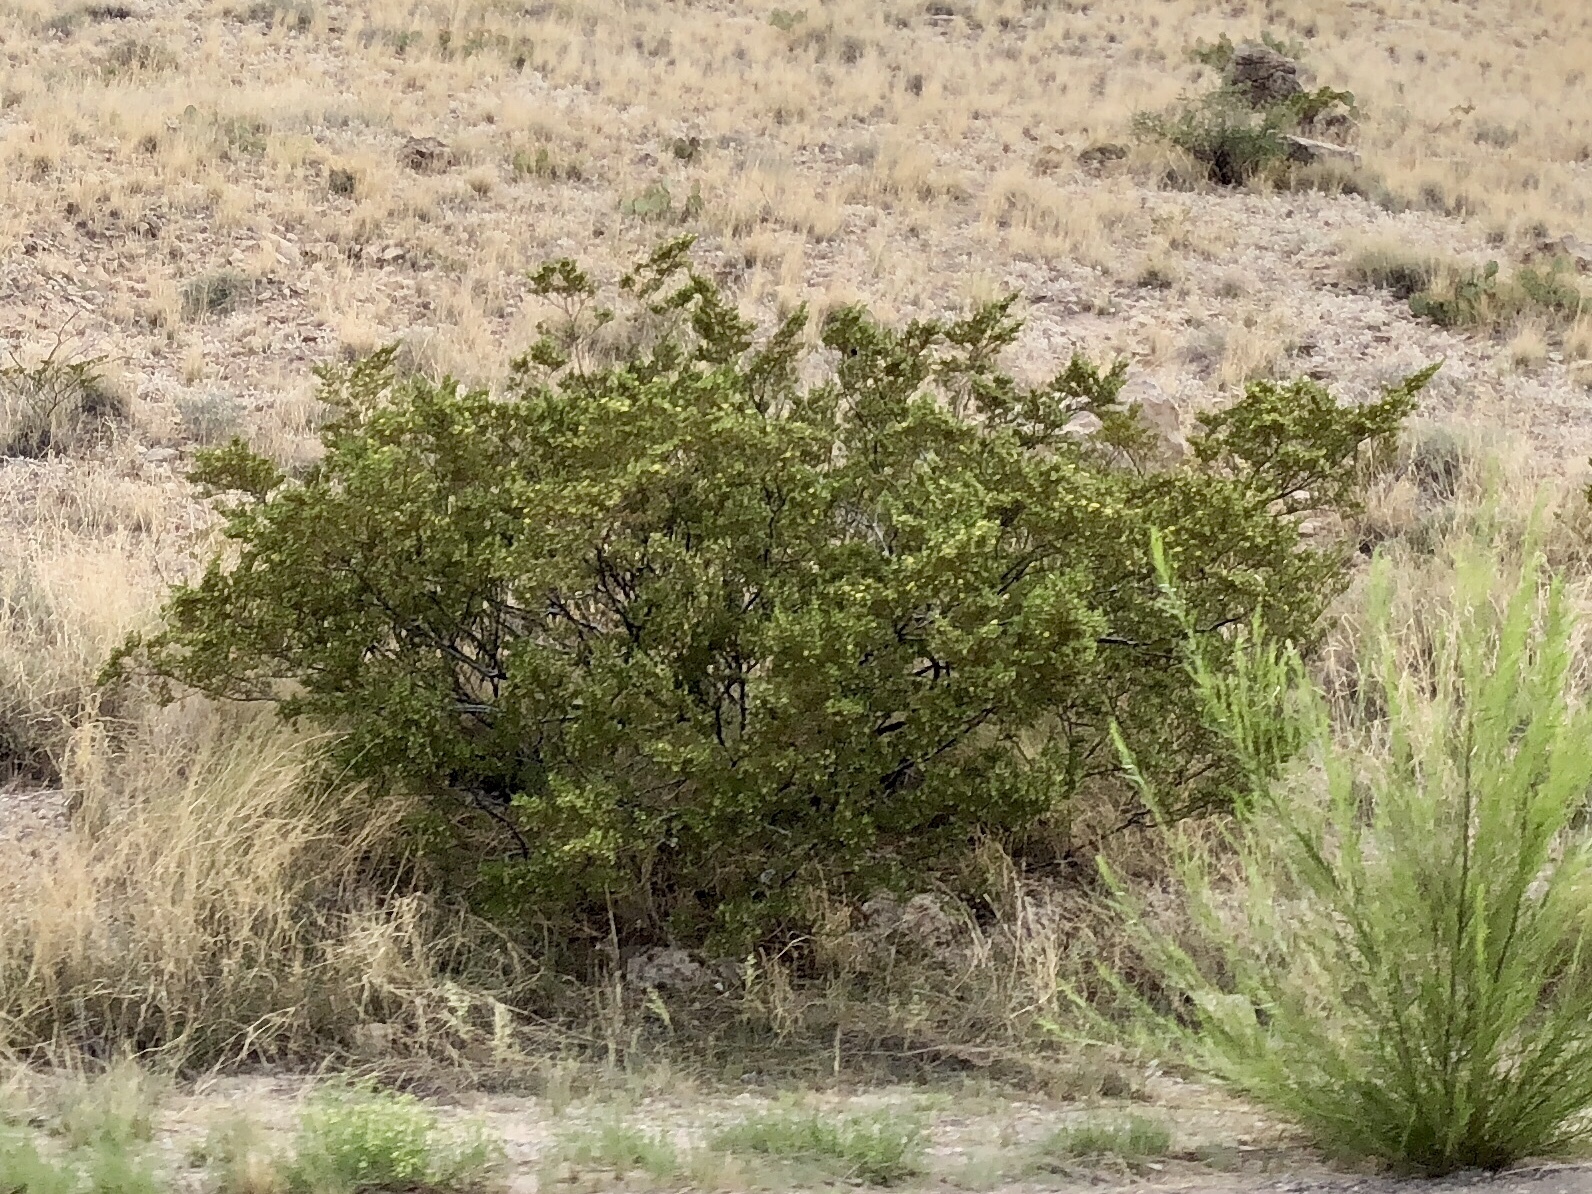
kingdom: Plantae
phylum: Tracheophyta
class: Magnoliopsida
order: Zygophyllales
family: Zygophyllaceae
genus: Larrea
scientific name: Larrea tridentata
